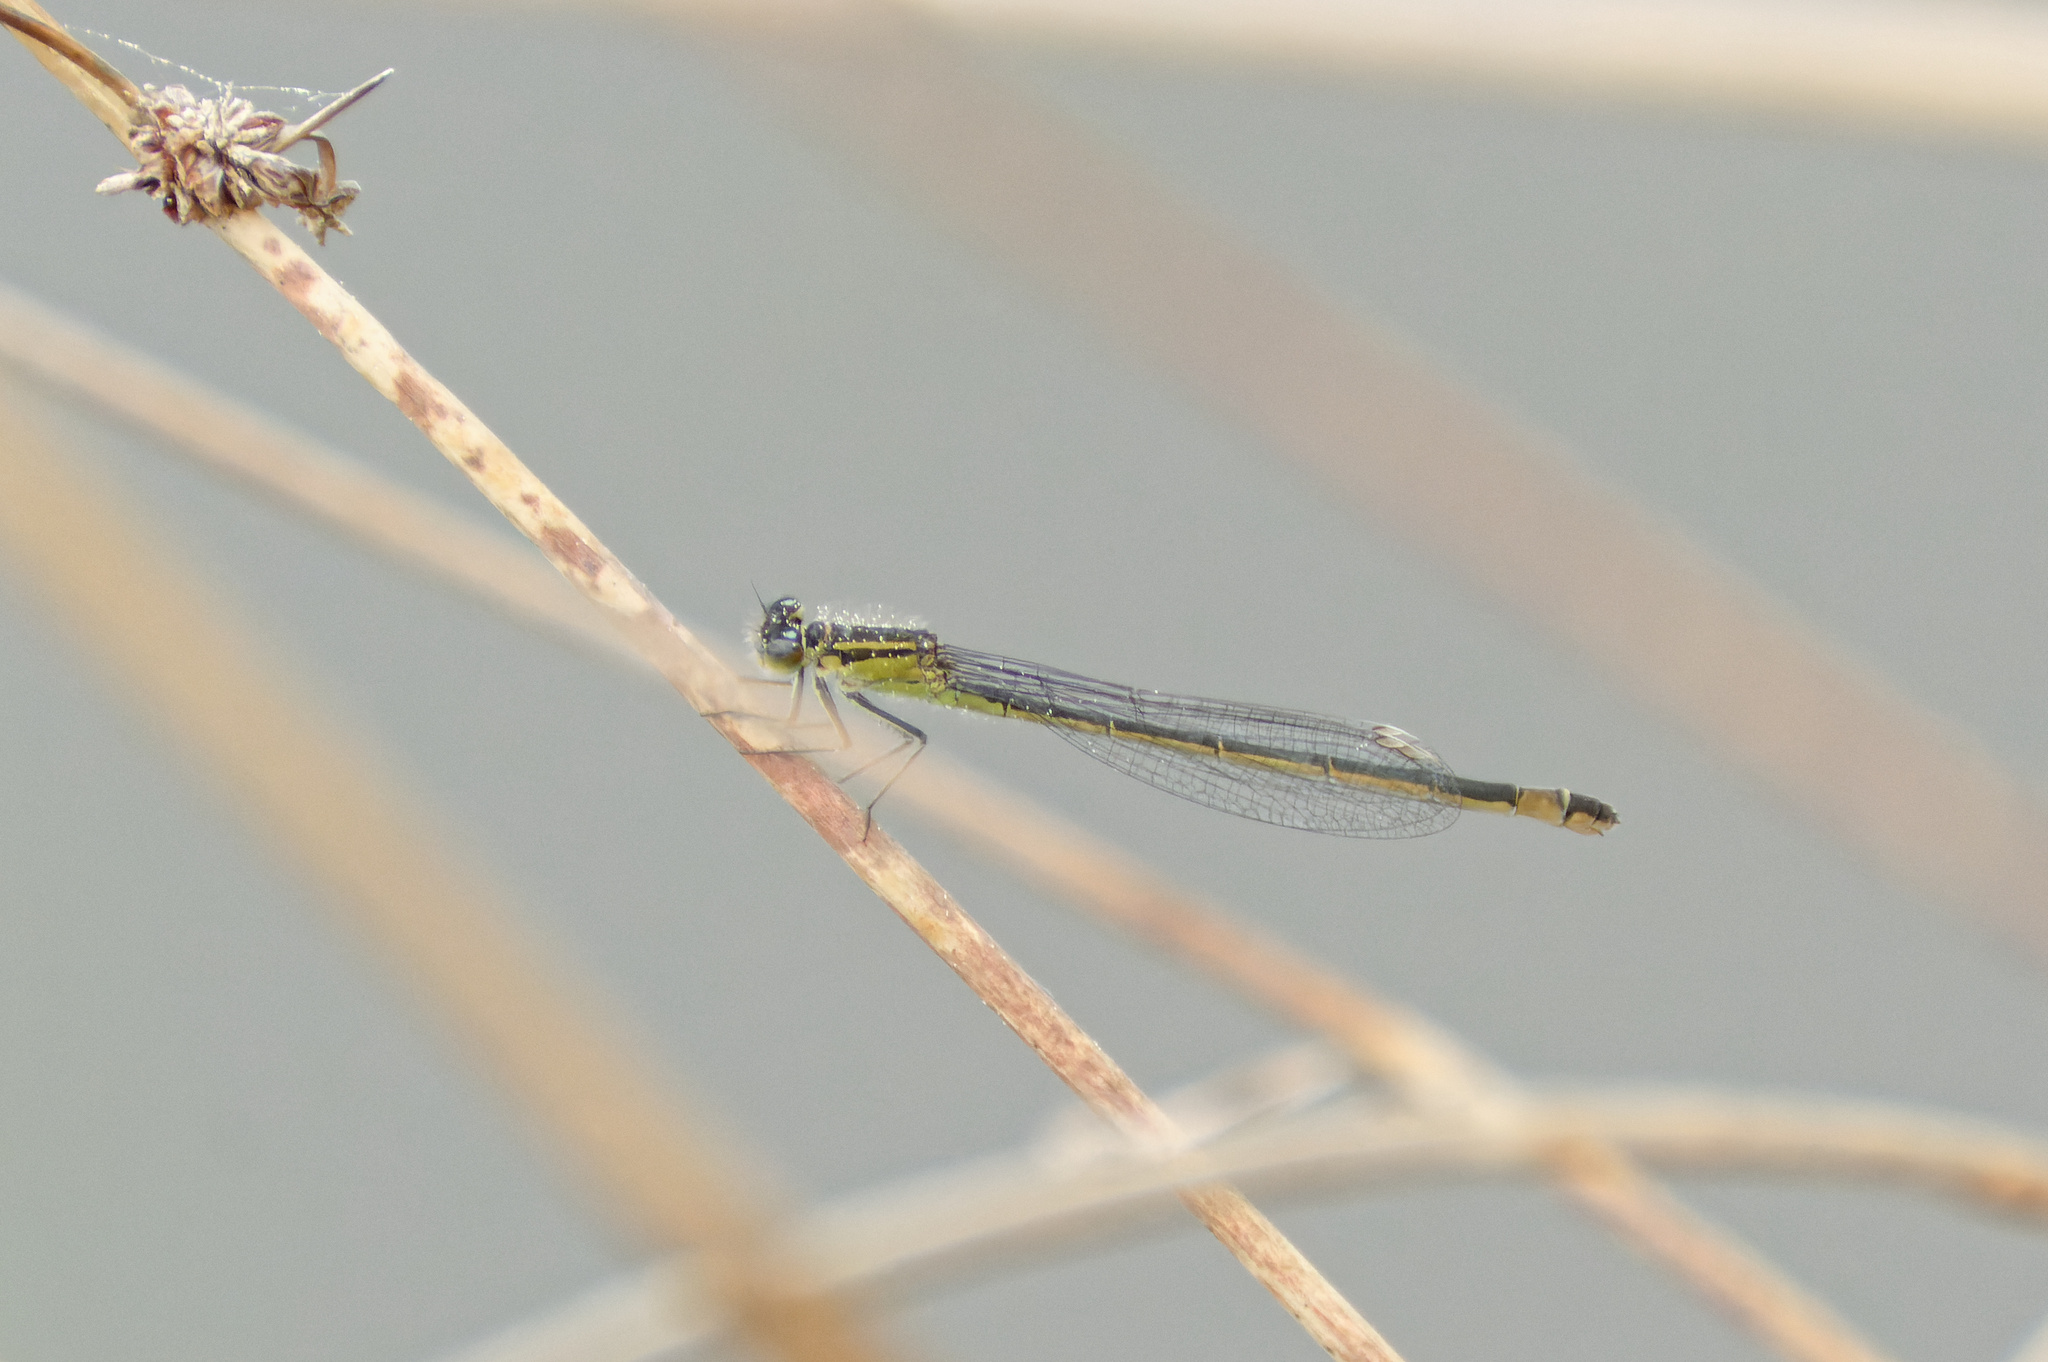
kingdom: Animalia
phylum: Arthropoda
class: Insecta
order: Odonata
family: Coenagrionidae
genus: Ischnura
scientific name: Ischnura elegans
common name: Blue-tailed damselfly
